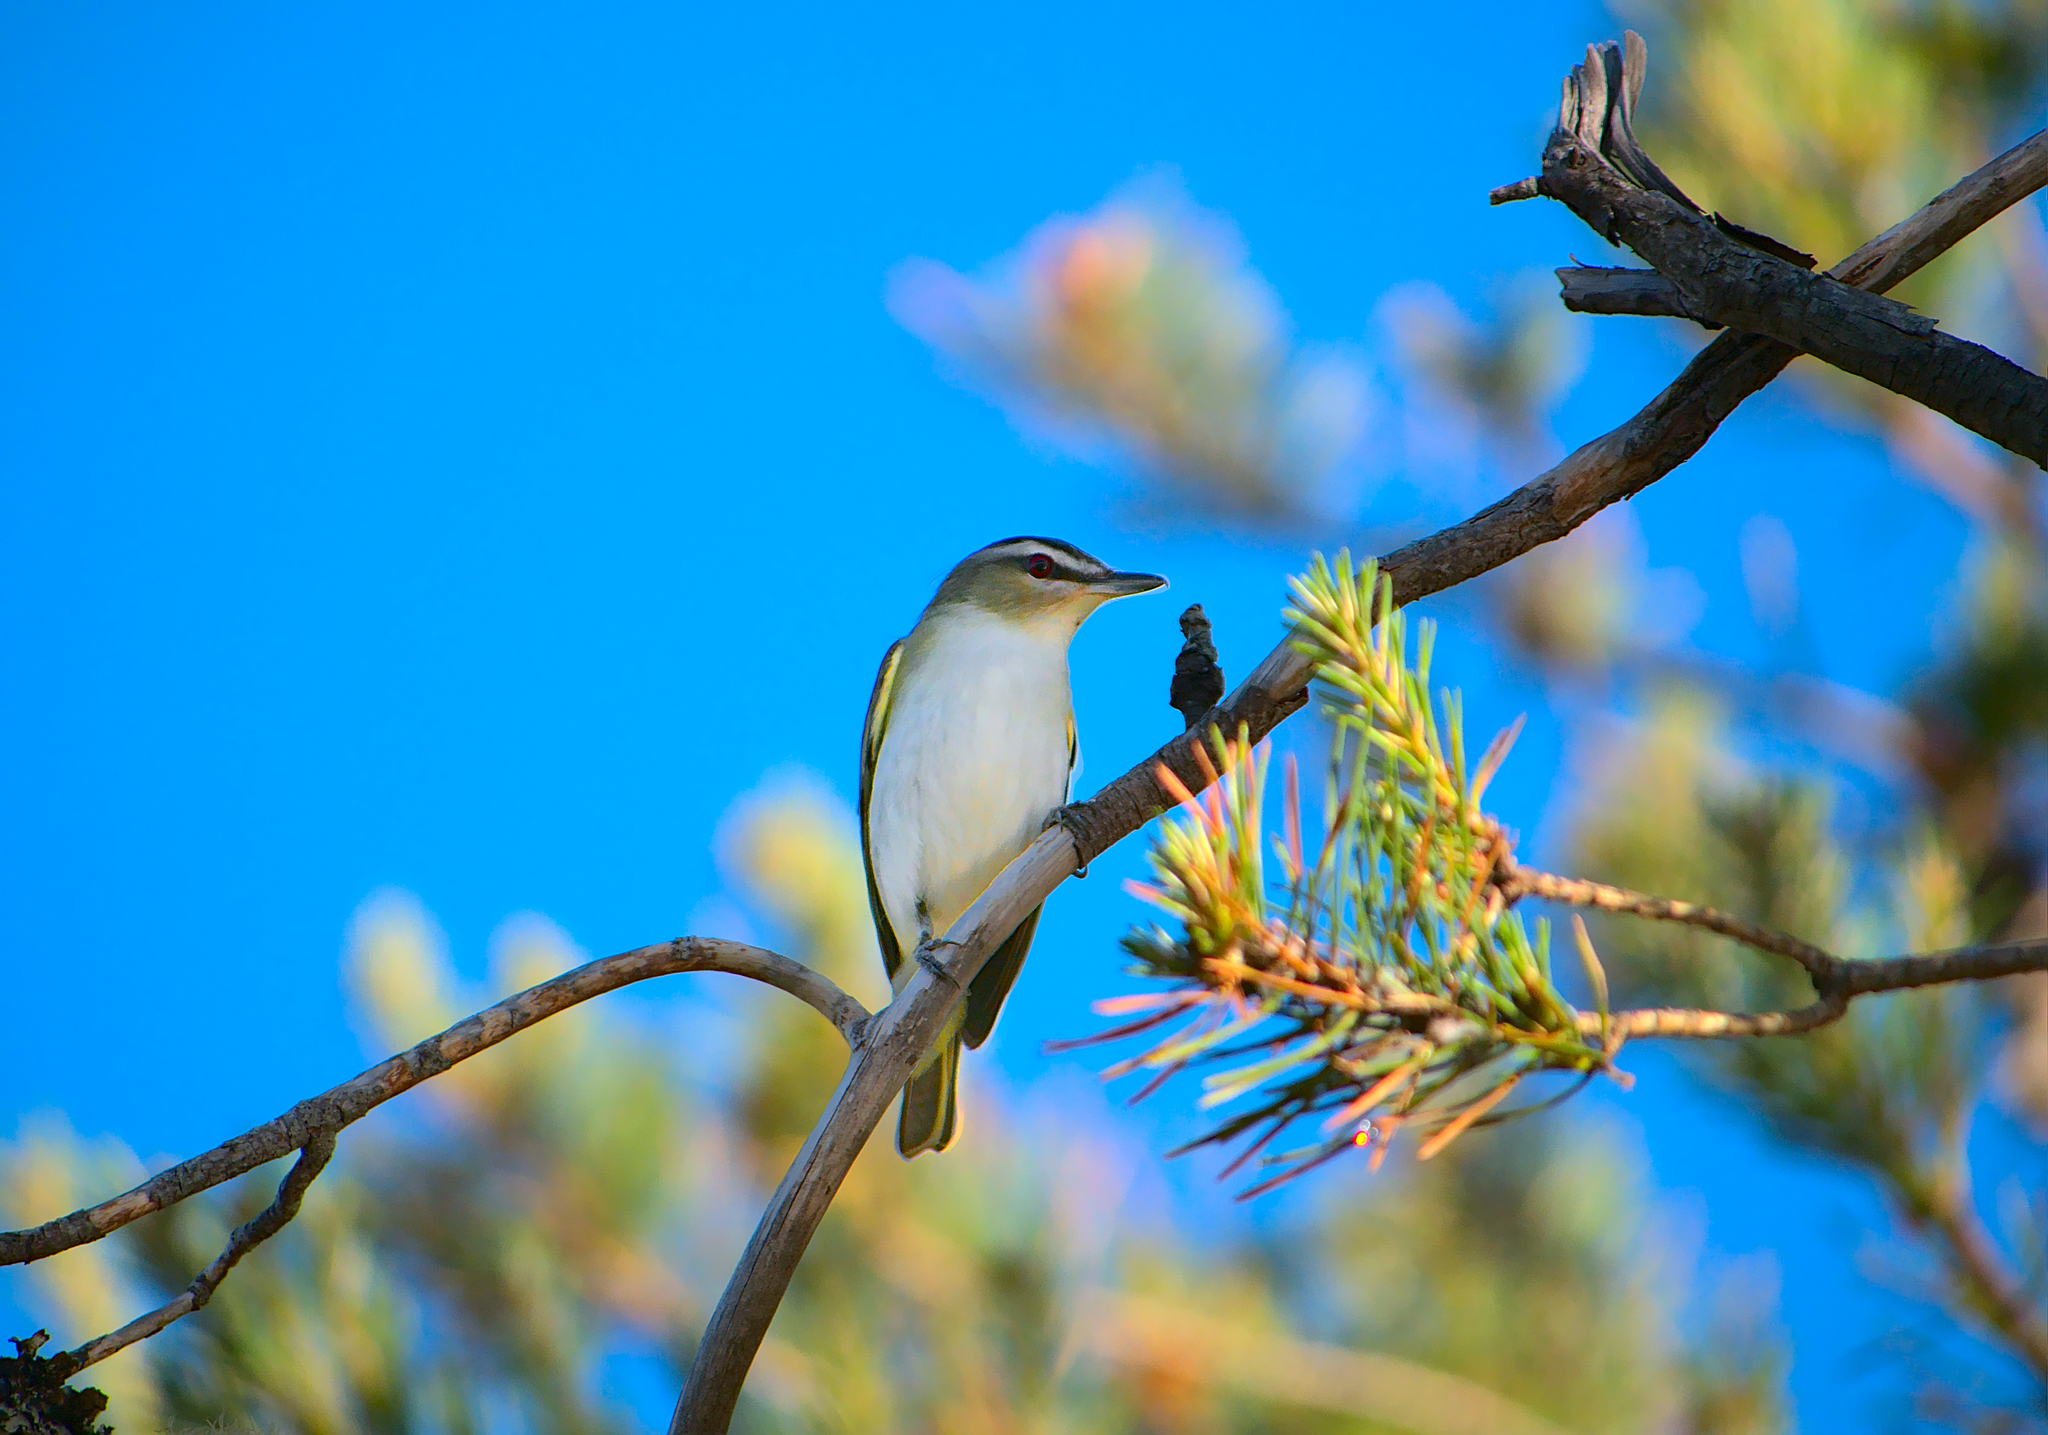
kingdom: Animalia
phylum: Chordata
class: Aves
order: Passeriformes
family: Vireonidae
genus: Vireo
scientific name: Vireo olivaceus
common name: Red-eyed vireo
